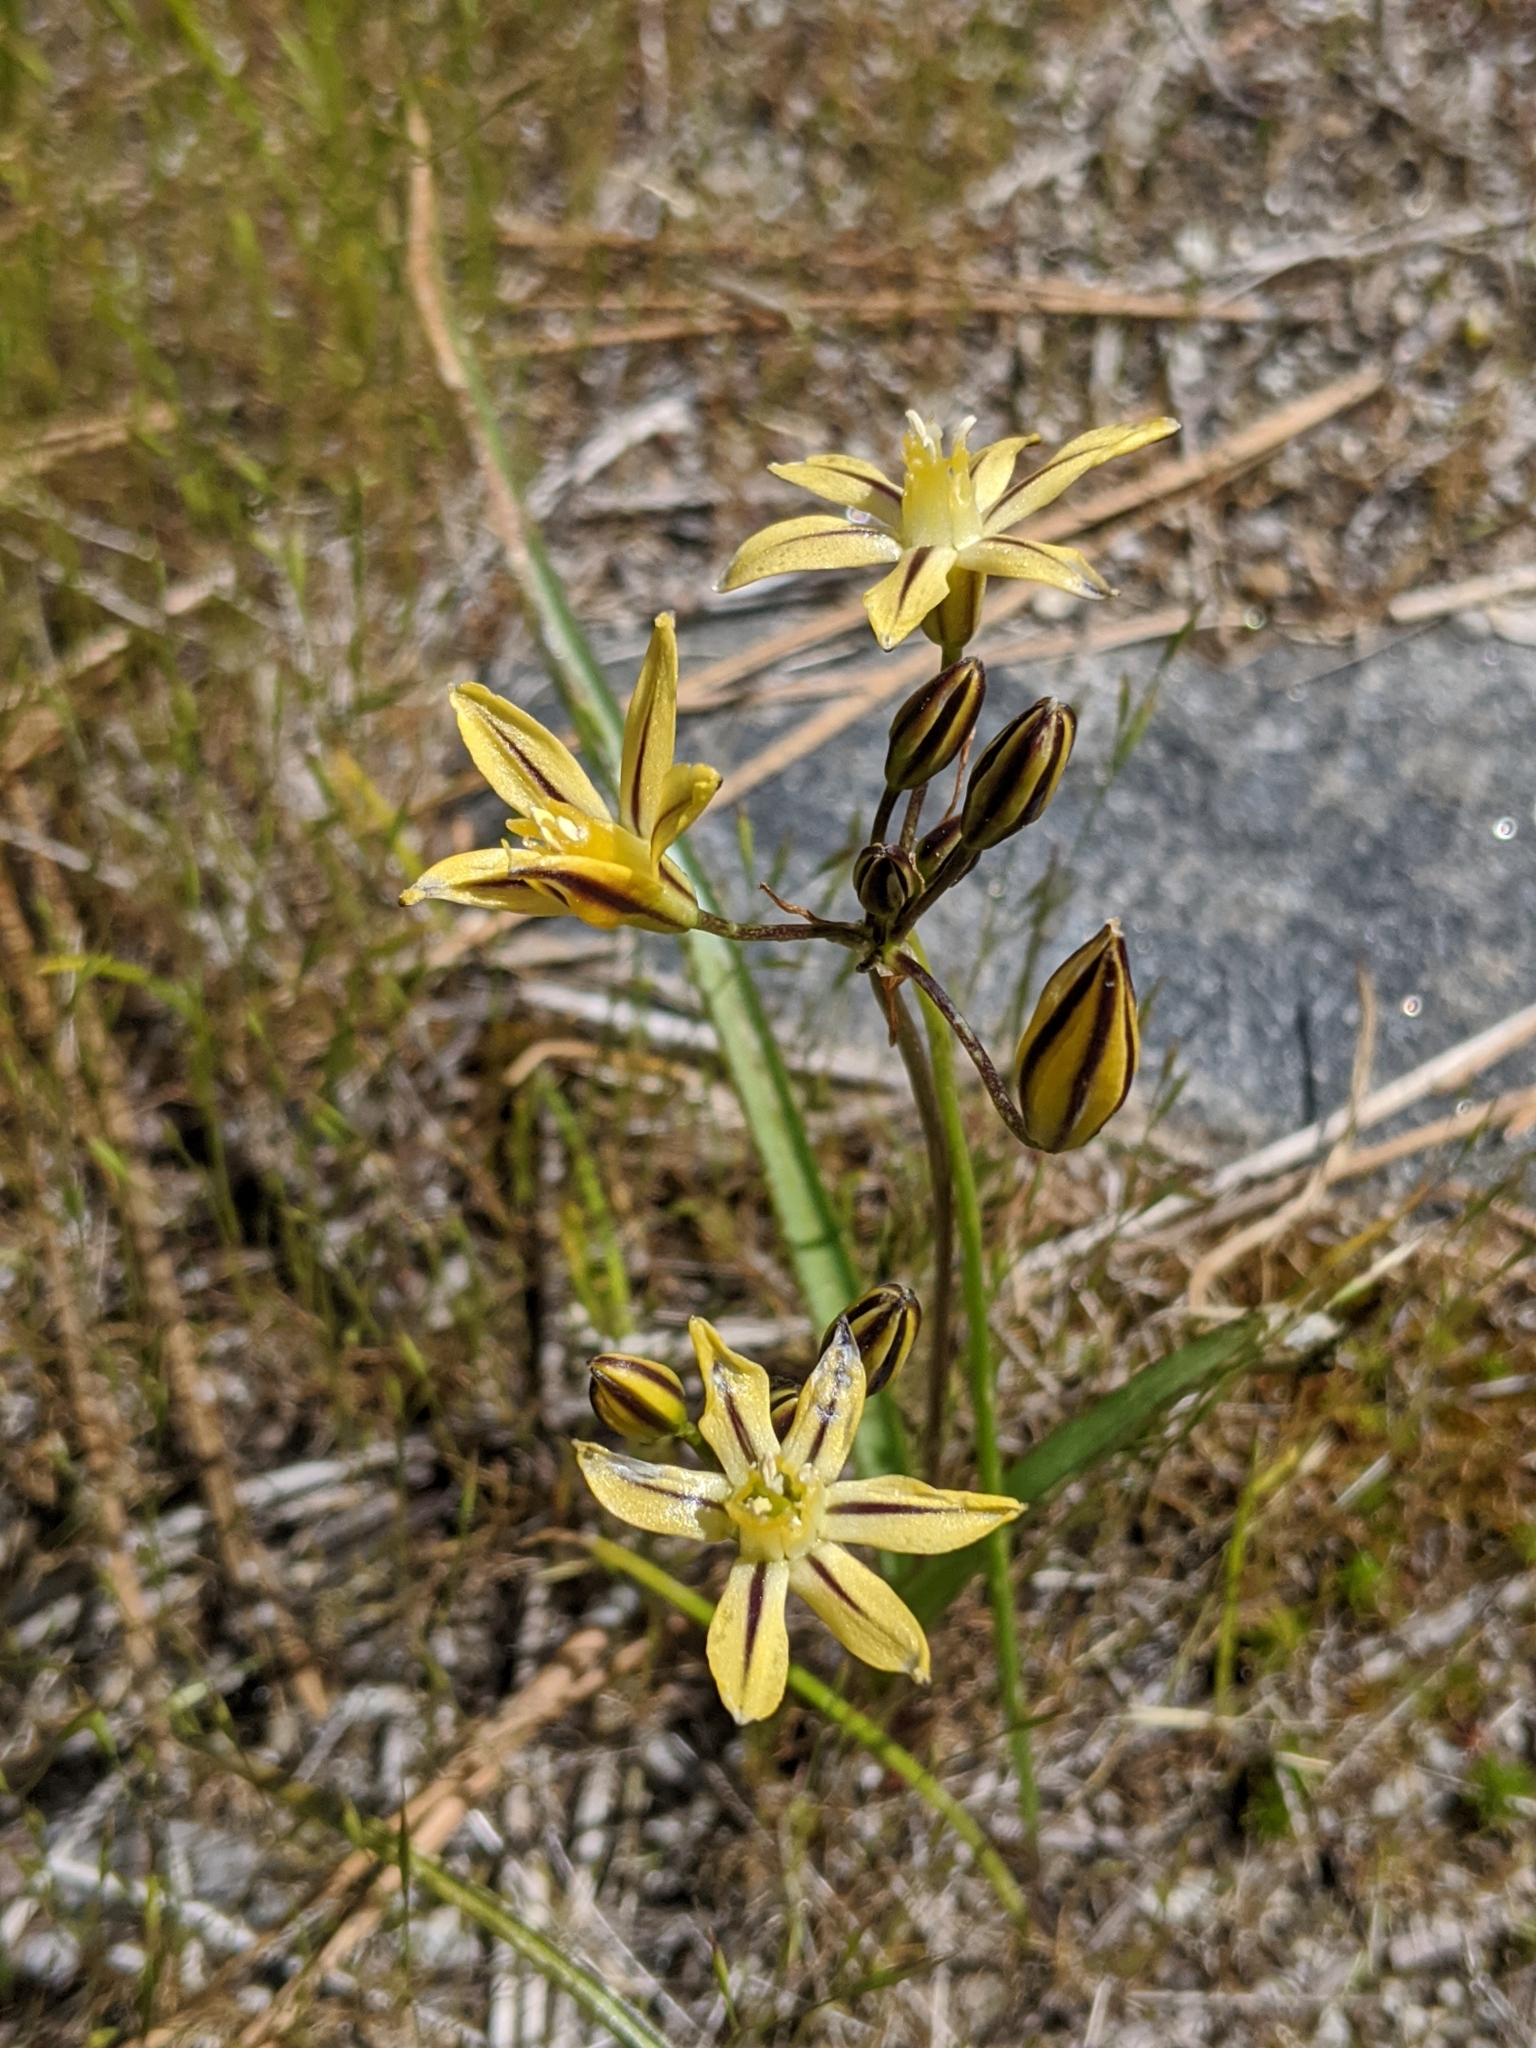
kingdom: Plantae
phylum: Tracheophyta
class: Liliopsida
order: Asparagales
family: Asparagaceae
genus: Triteleia
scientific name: Triteleia ixioides
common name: Yellow-brodiaea
